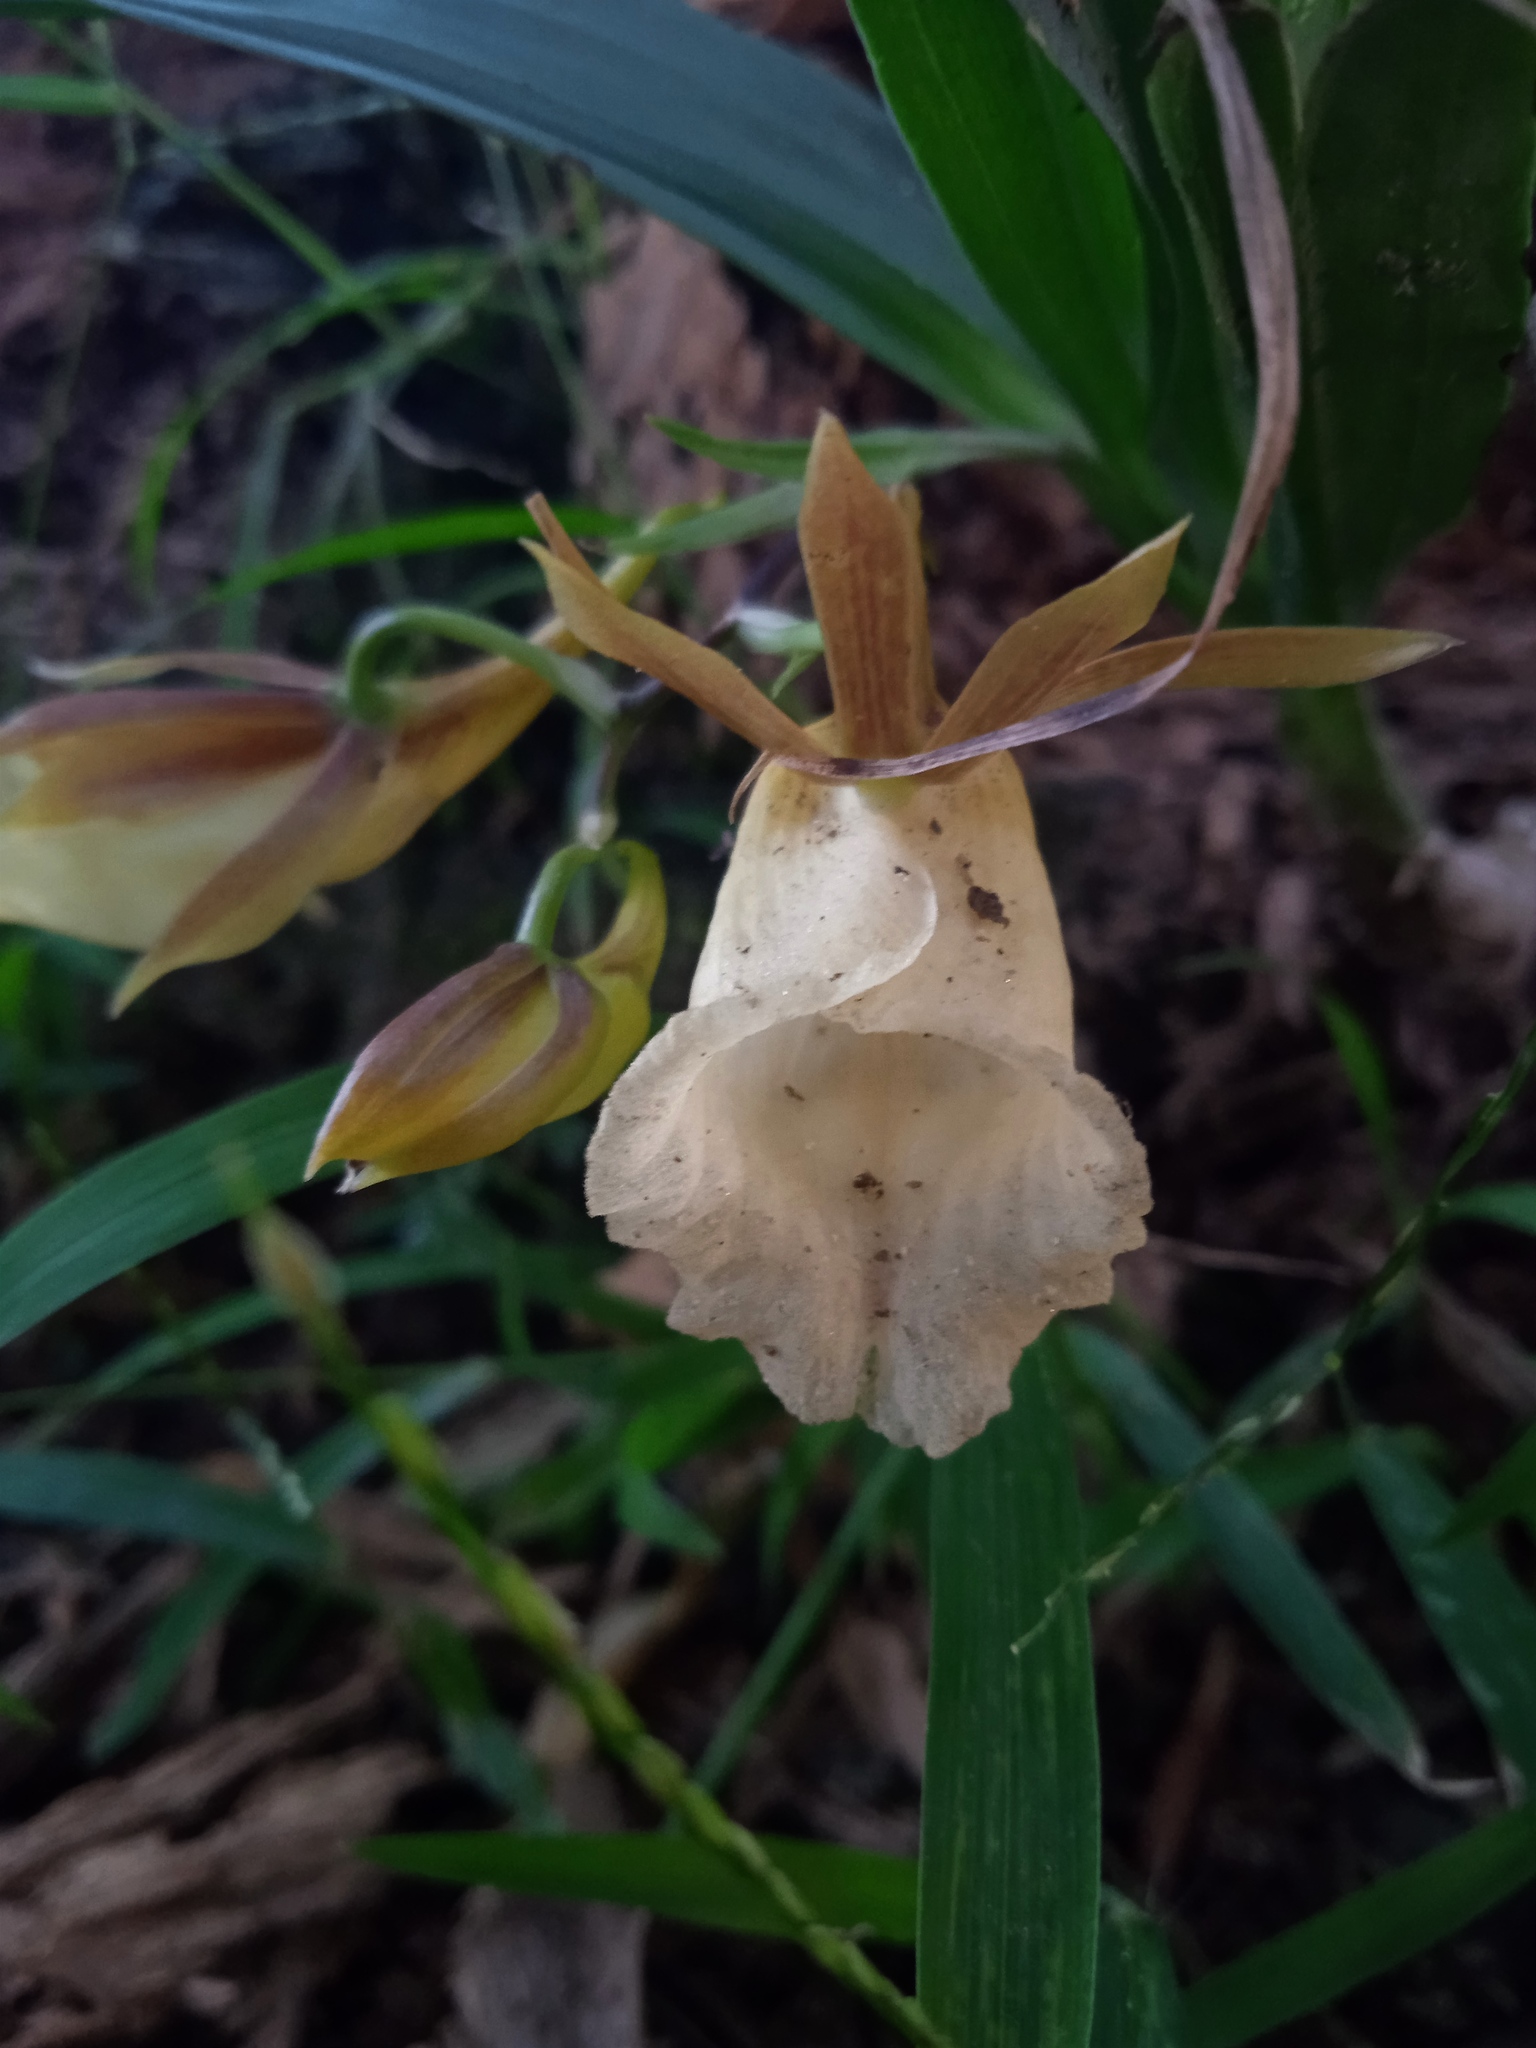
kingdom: Plantae
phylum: Tracheophyta
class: Liliopsida
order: Asparagales
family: Orchidaceae
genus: Galeandra
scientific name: Galeandra baueri
